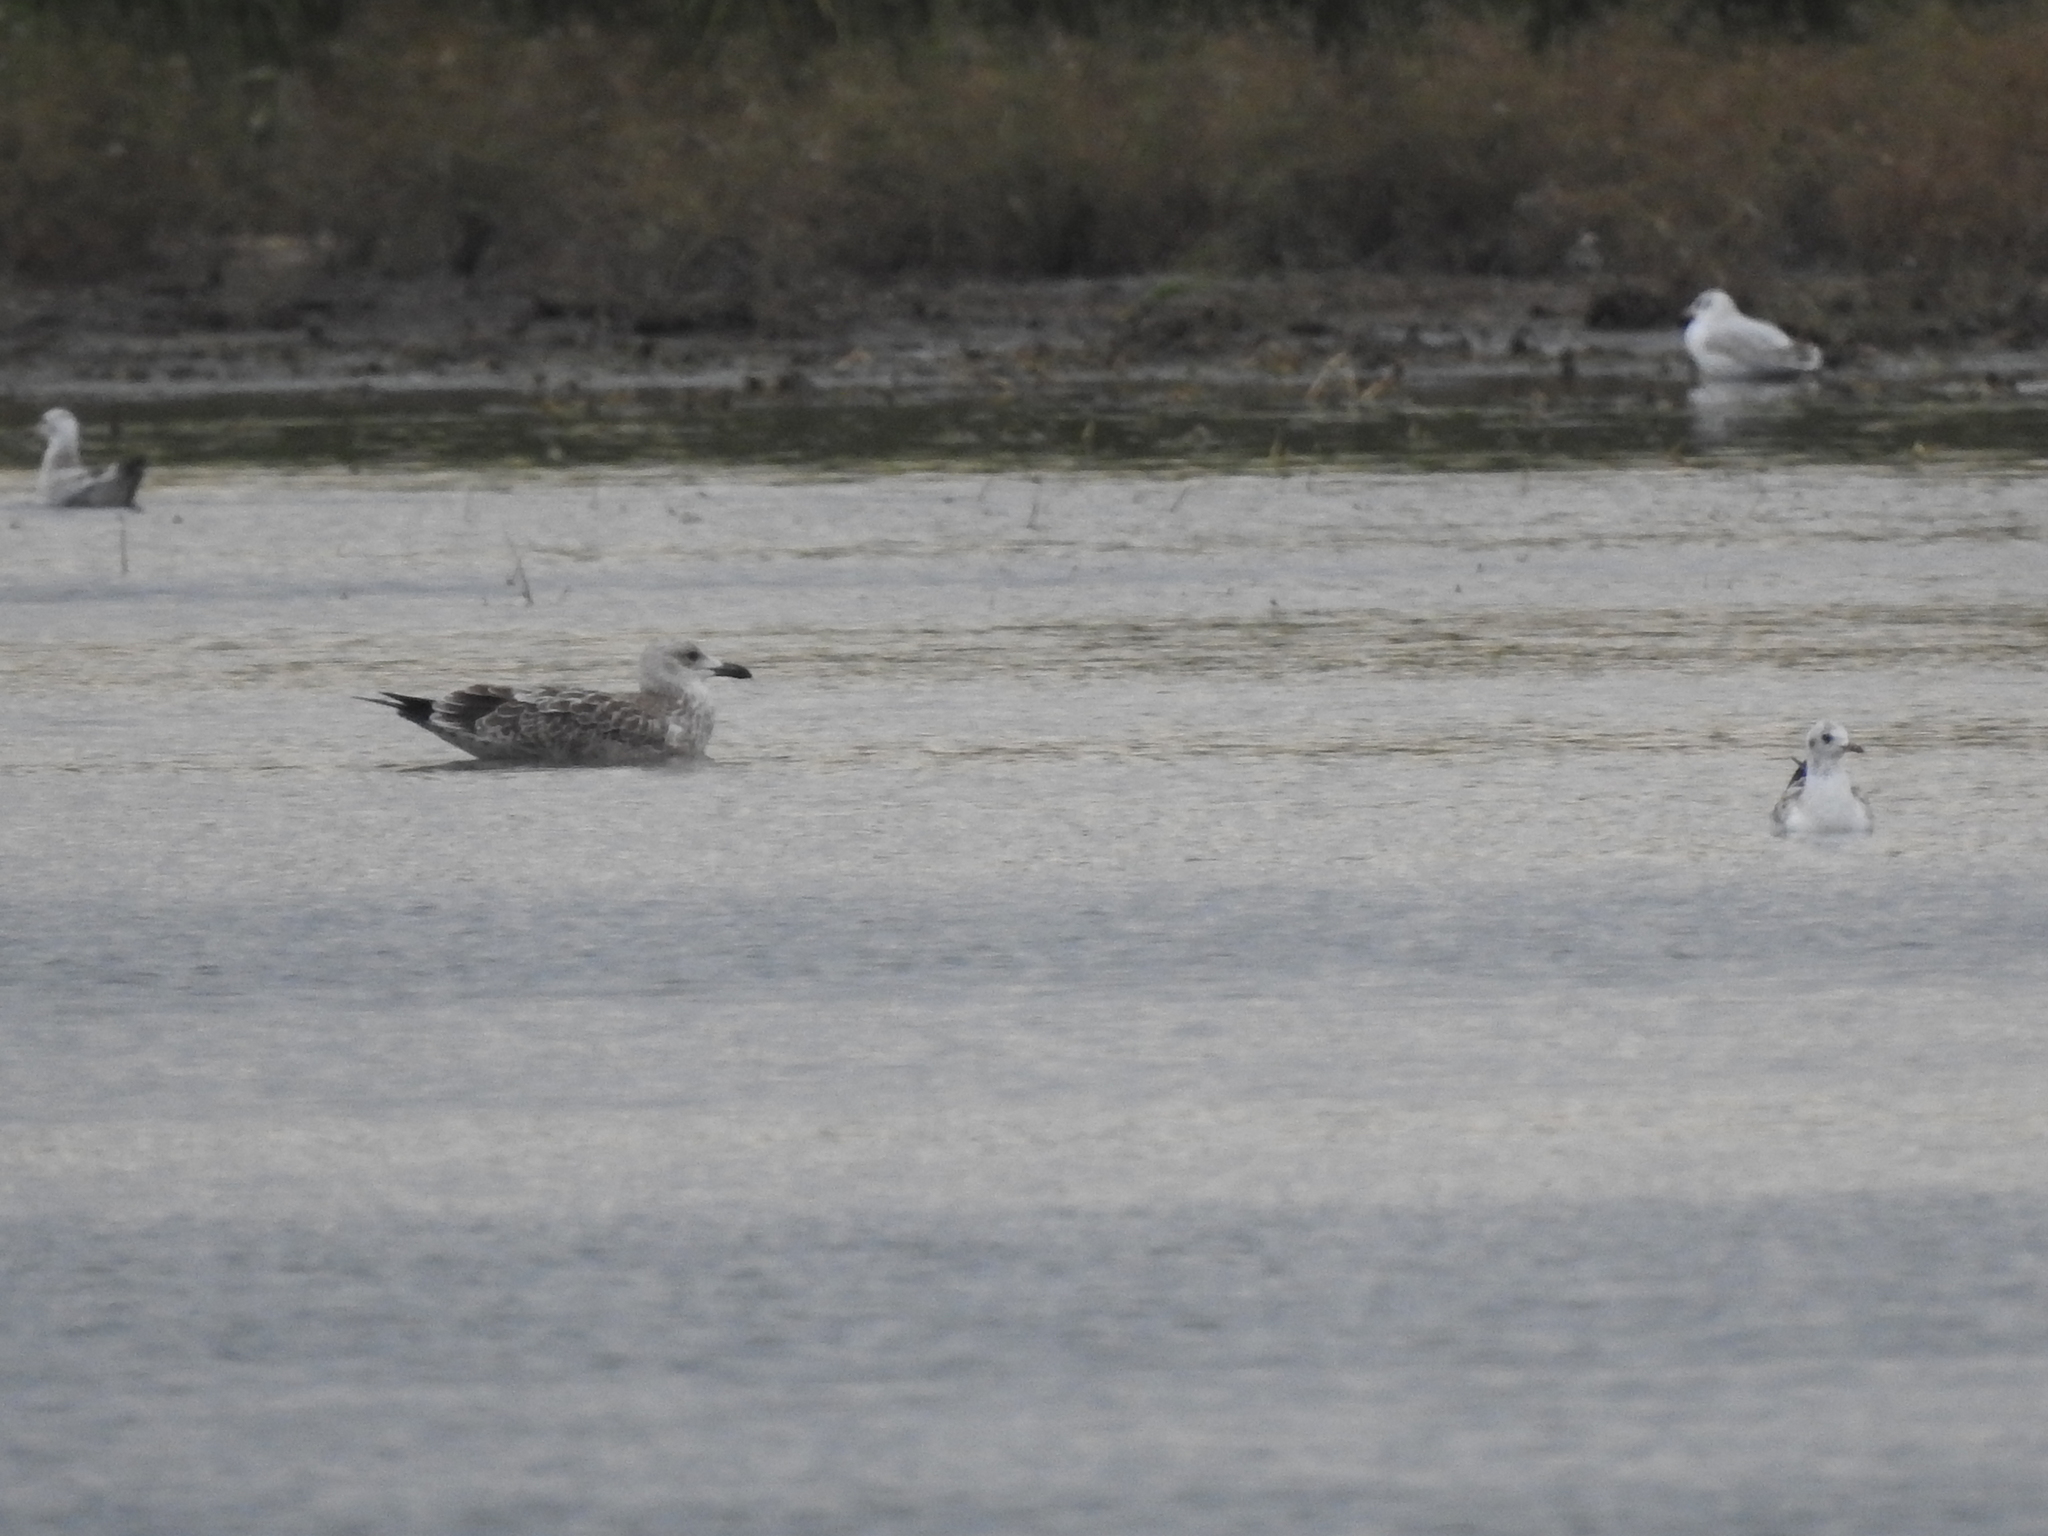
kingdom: Animalia
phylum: Chordata
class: Aves
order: Charadriiformes
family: Laridae
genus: Larus
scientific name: Larus fuscus
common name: Lesser black-backed gull
